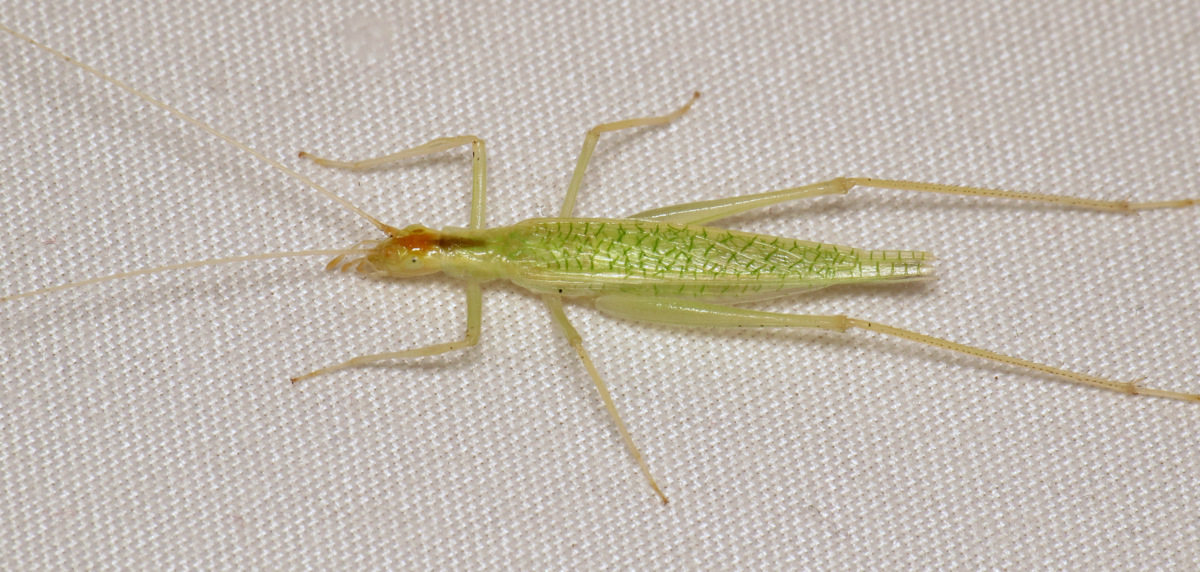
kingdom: Animalia
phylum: Arthropoda
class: Insecta
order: Orthoptera
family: Gryllidae
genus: Oecanthus
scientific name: Oecanthus niveus
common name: Narrow-winged tree cricket
